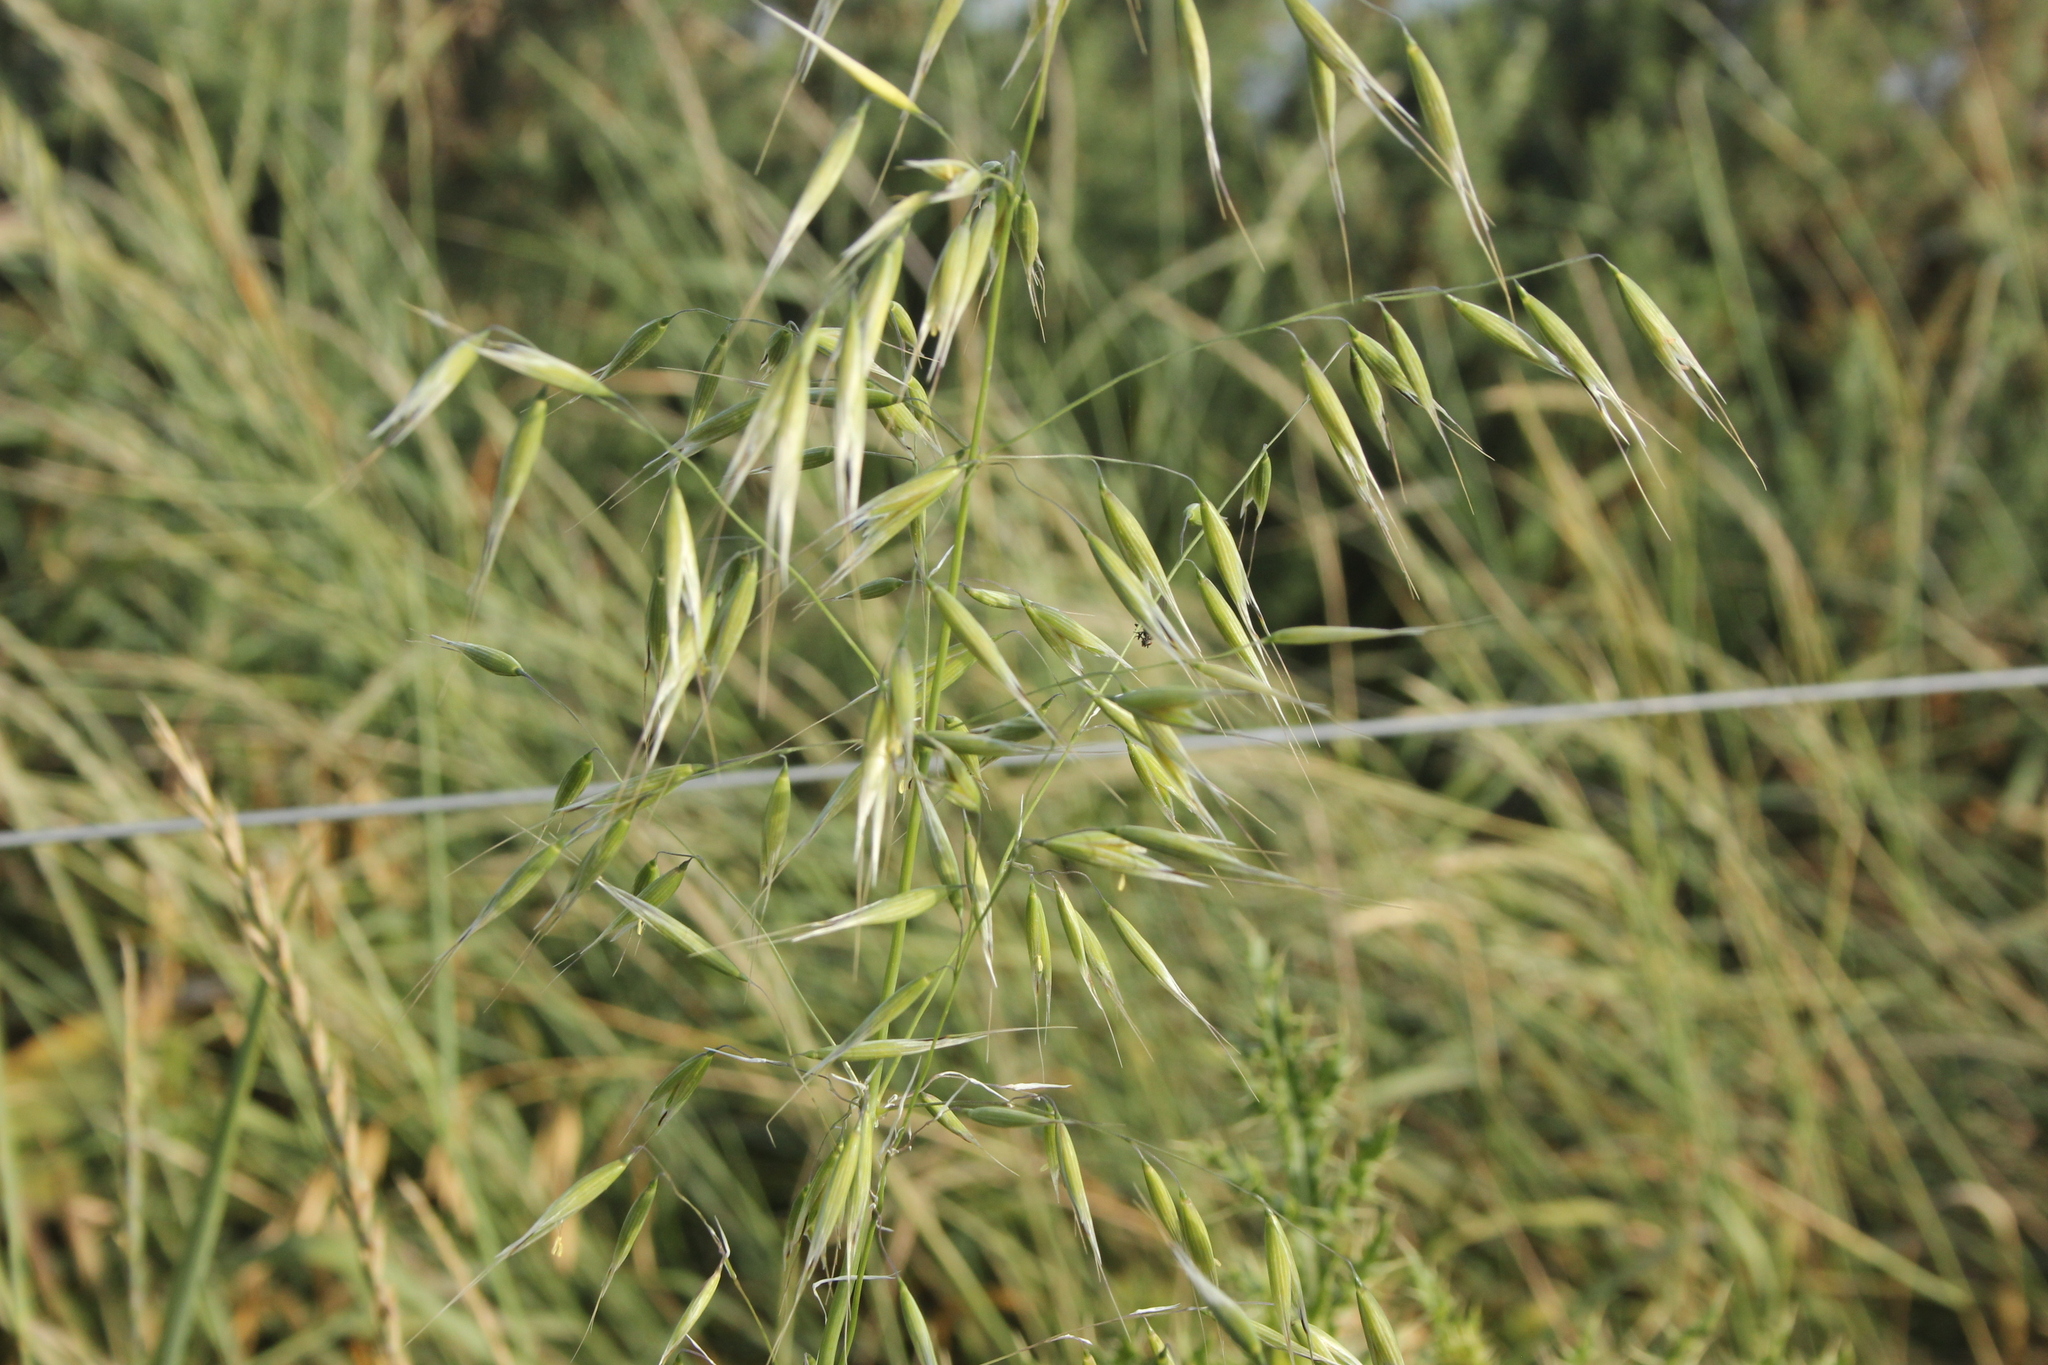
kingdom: Plantae
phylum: Tracheophyta
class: Liliopsida
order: Poales
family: Poaceae
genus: Avena
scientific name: Avena fatua
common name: Wild oat
